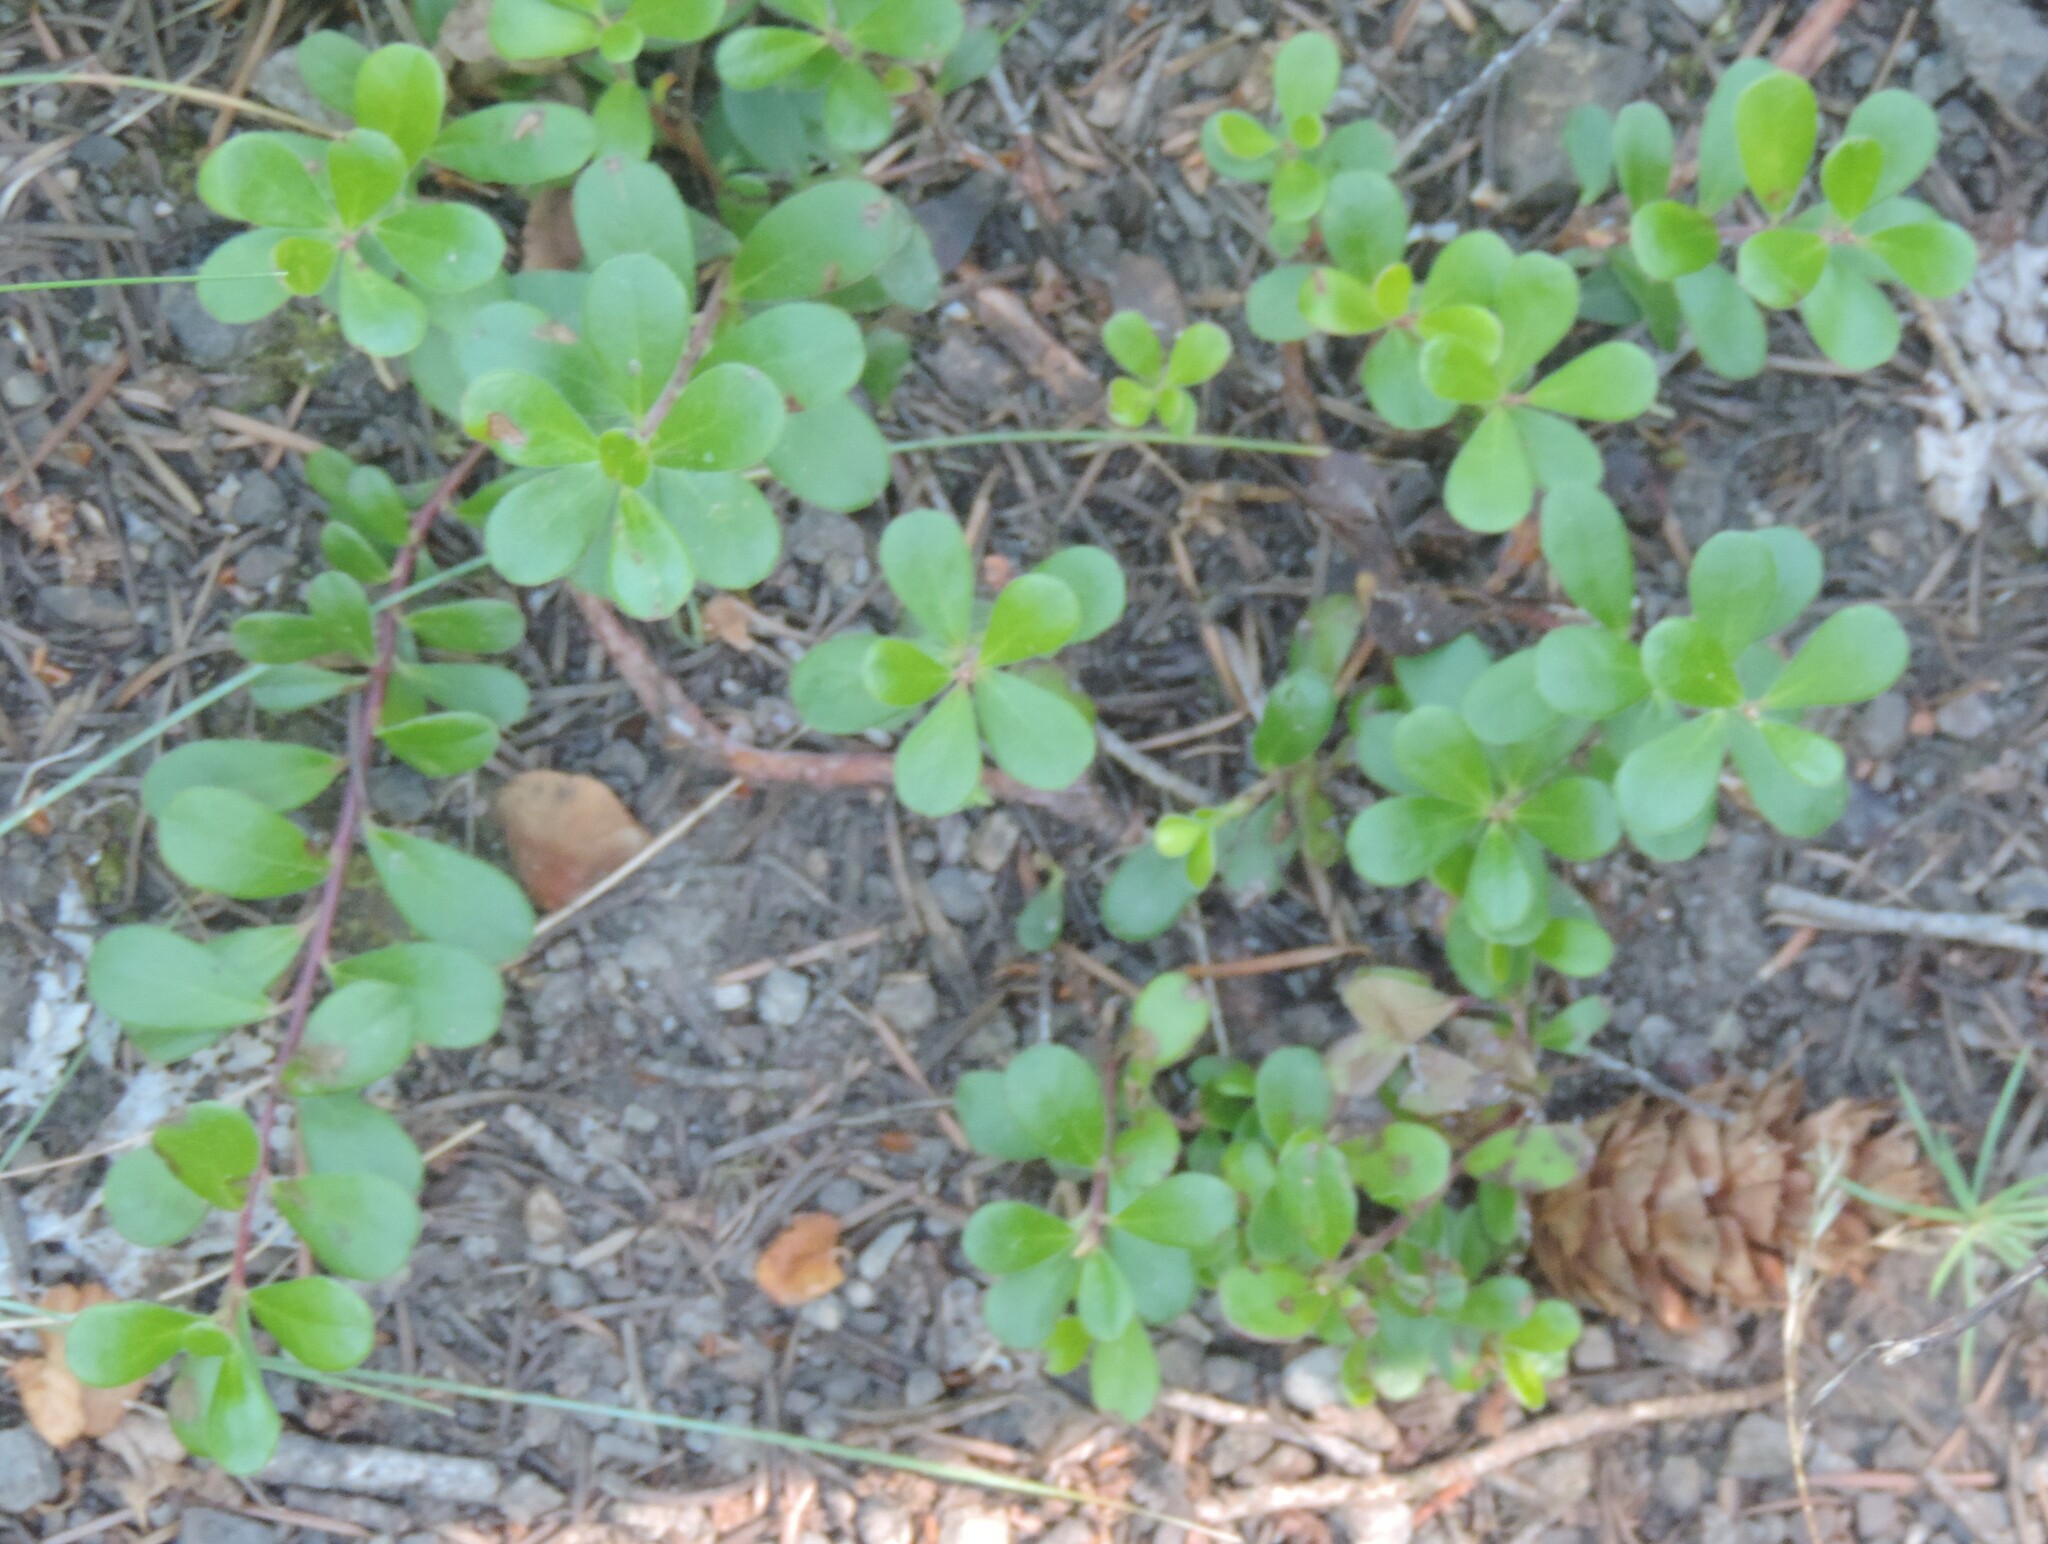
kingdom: Plantae
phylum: Tracheophyta
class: Magnoliopsida
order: Ericales
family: Ericaceae
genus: Arctostaphylos
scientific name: Arctostaphylos uva-ursi
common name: Bearberry
